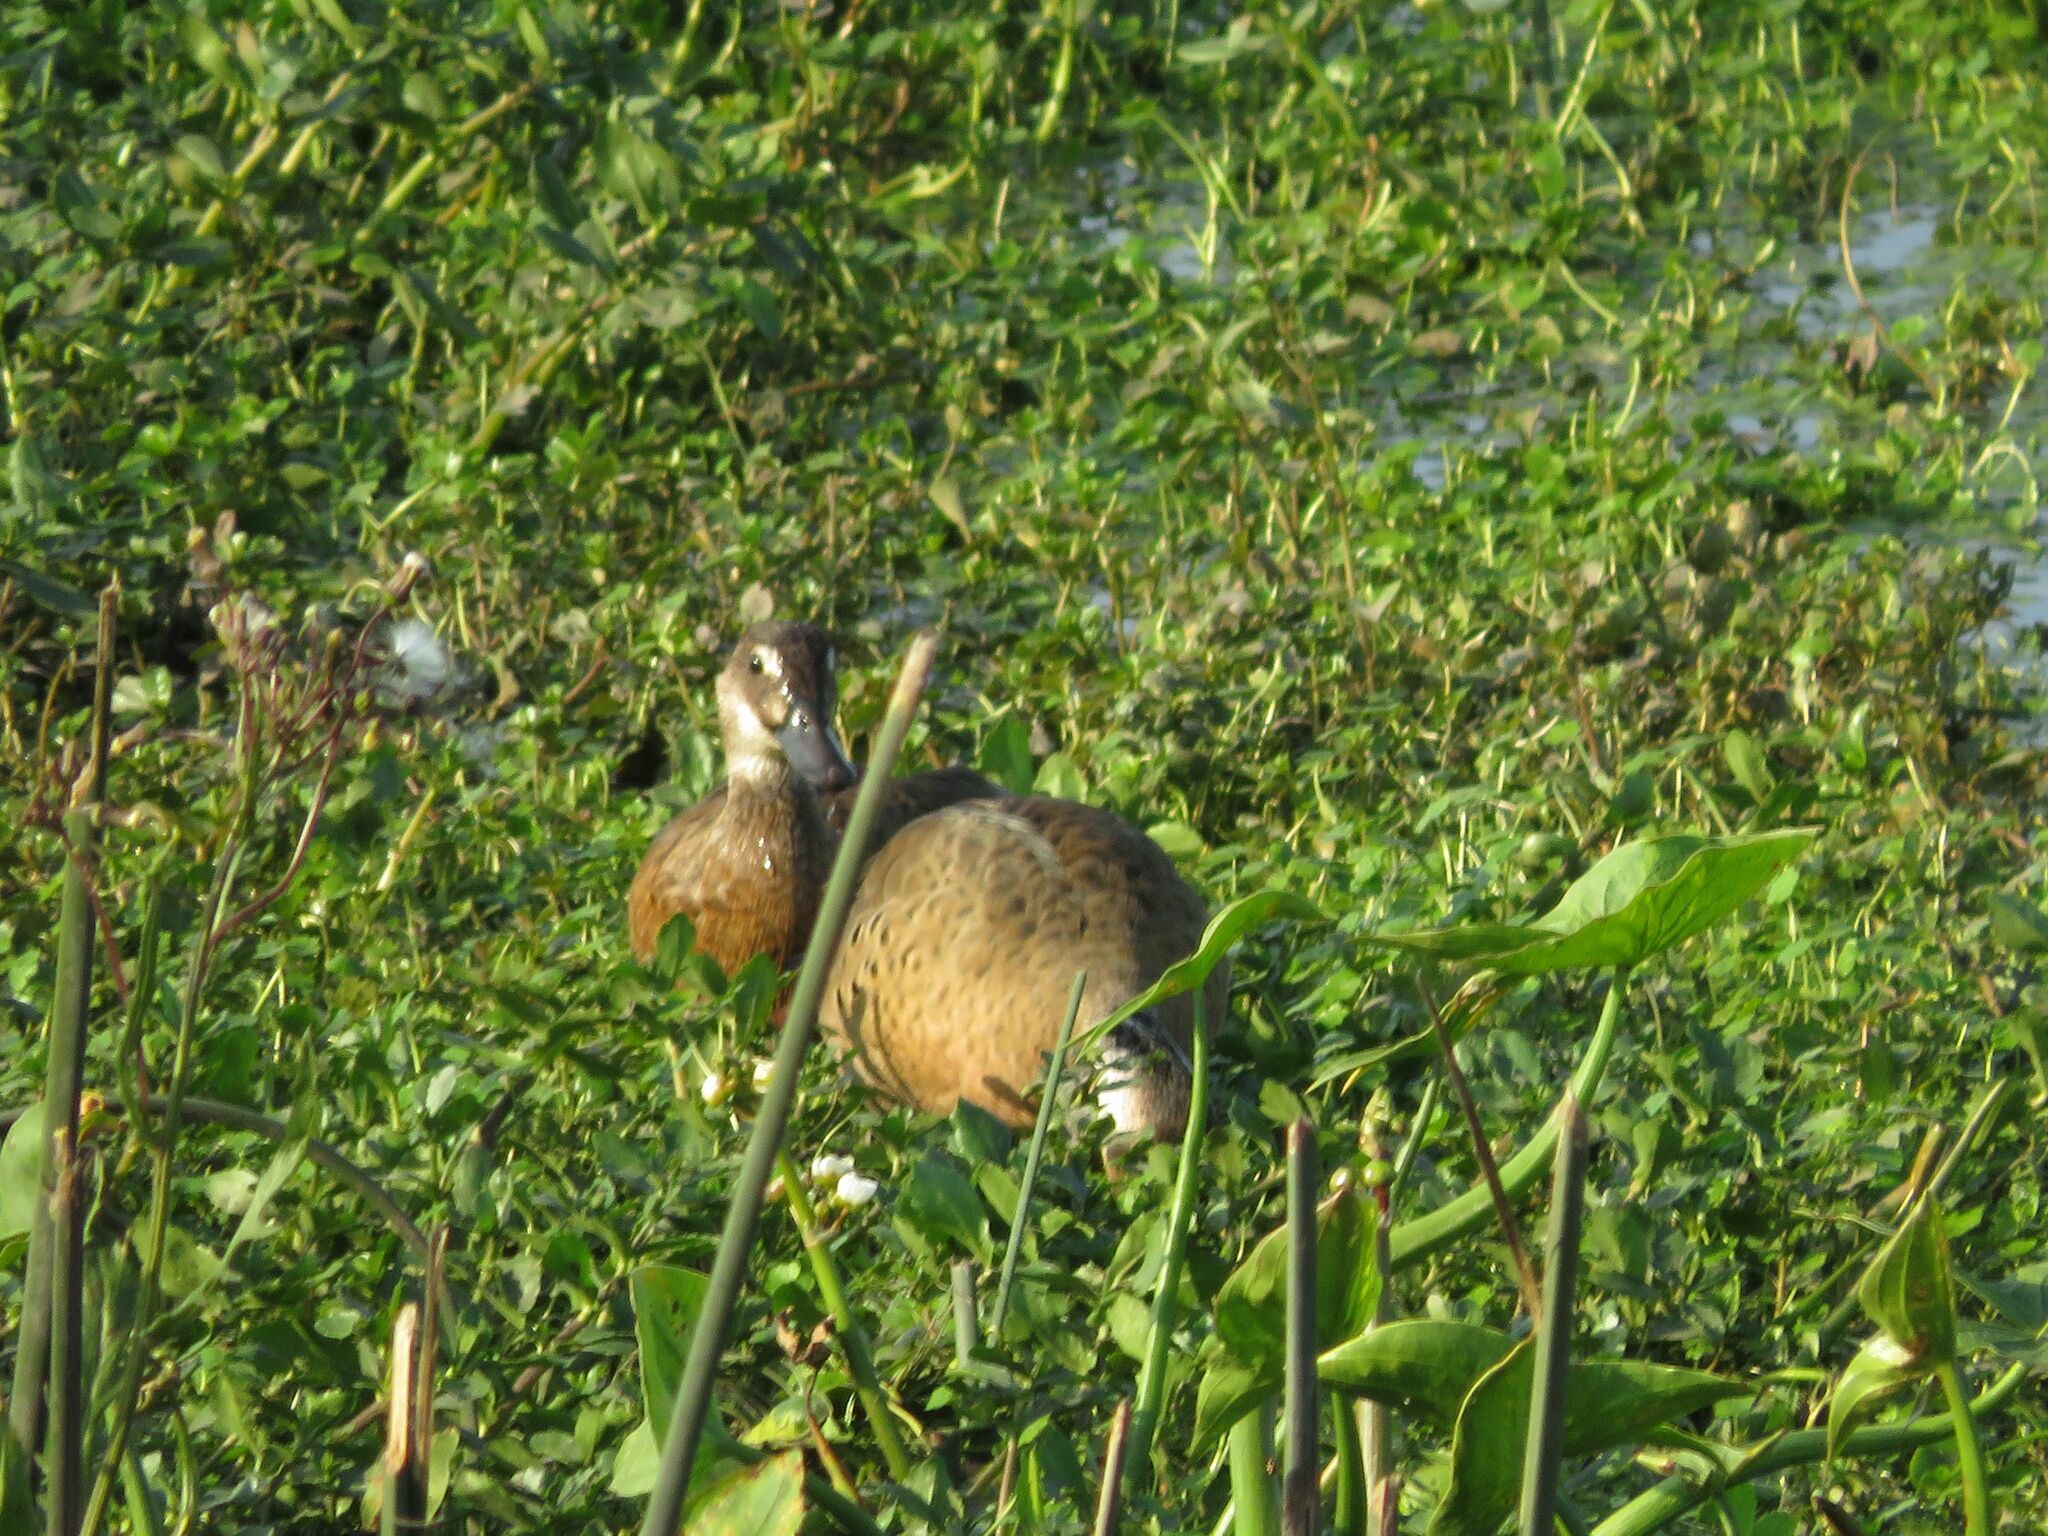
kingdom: Animalia
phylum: Chordata
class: Aves
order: Anseriformes
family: Anatidae
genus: Amazonetta
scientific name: Amazonetta brasiliensis
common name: Brazilian teal
